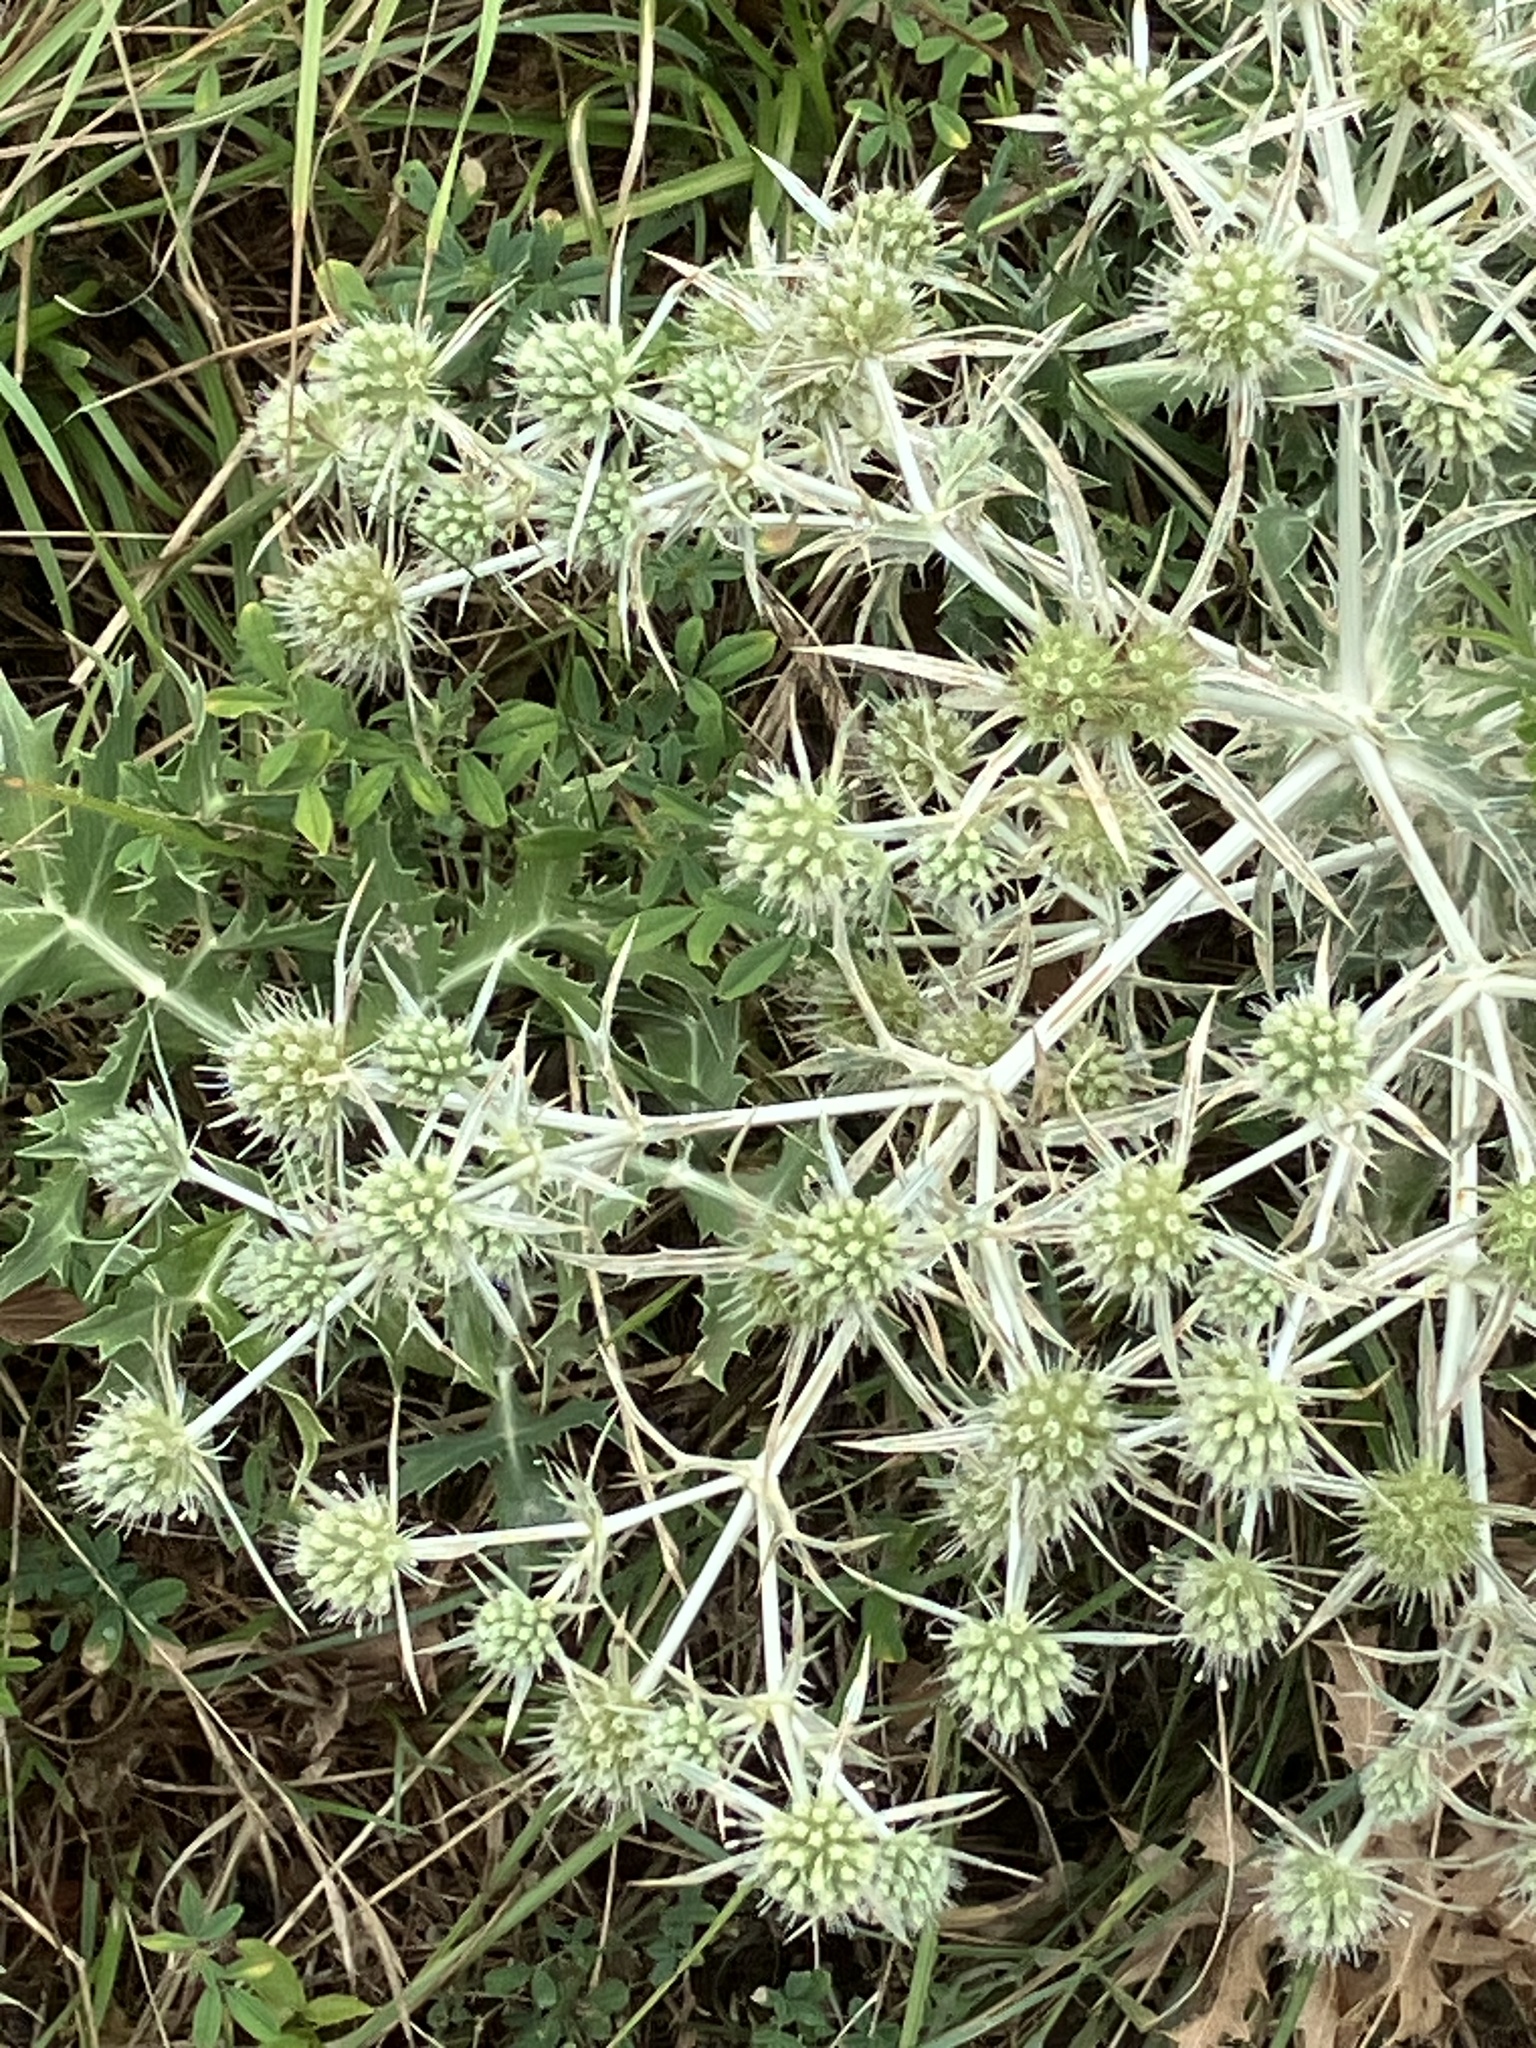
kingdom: Plantae
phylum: Tracheophyta
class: Magnoliopsida
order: Apiales
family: Apiaceae
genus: Eryngium
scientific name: Eryngium campestre
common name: Field eryngo
